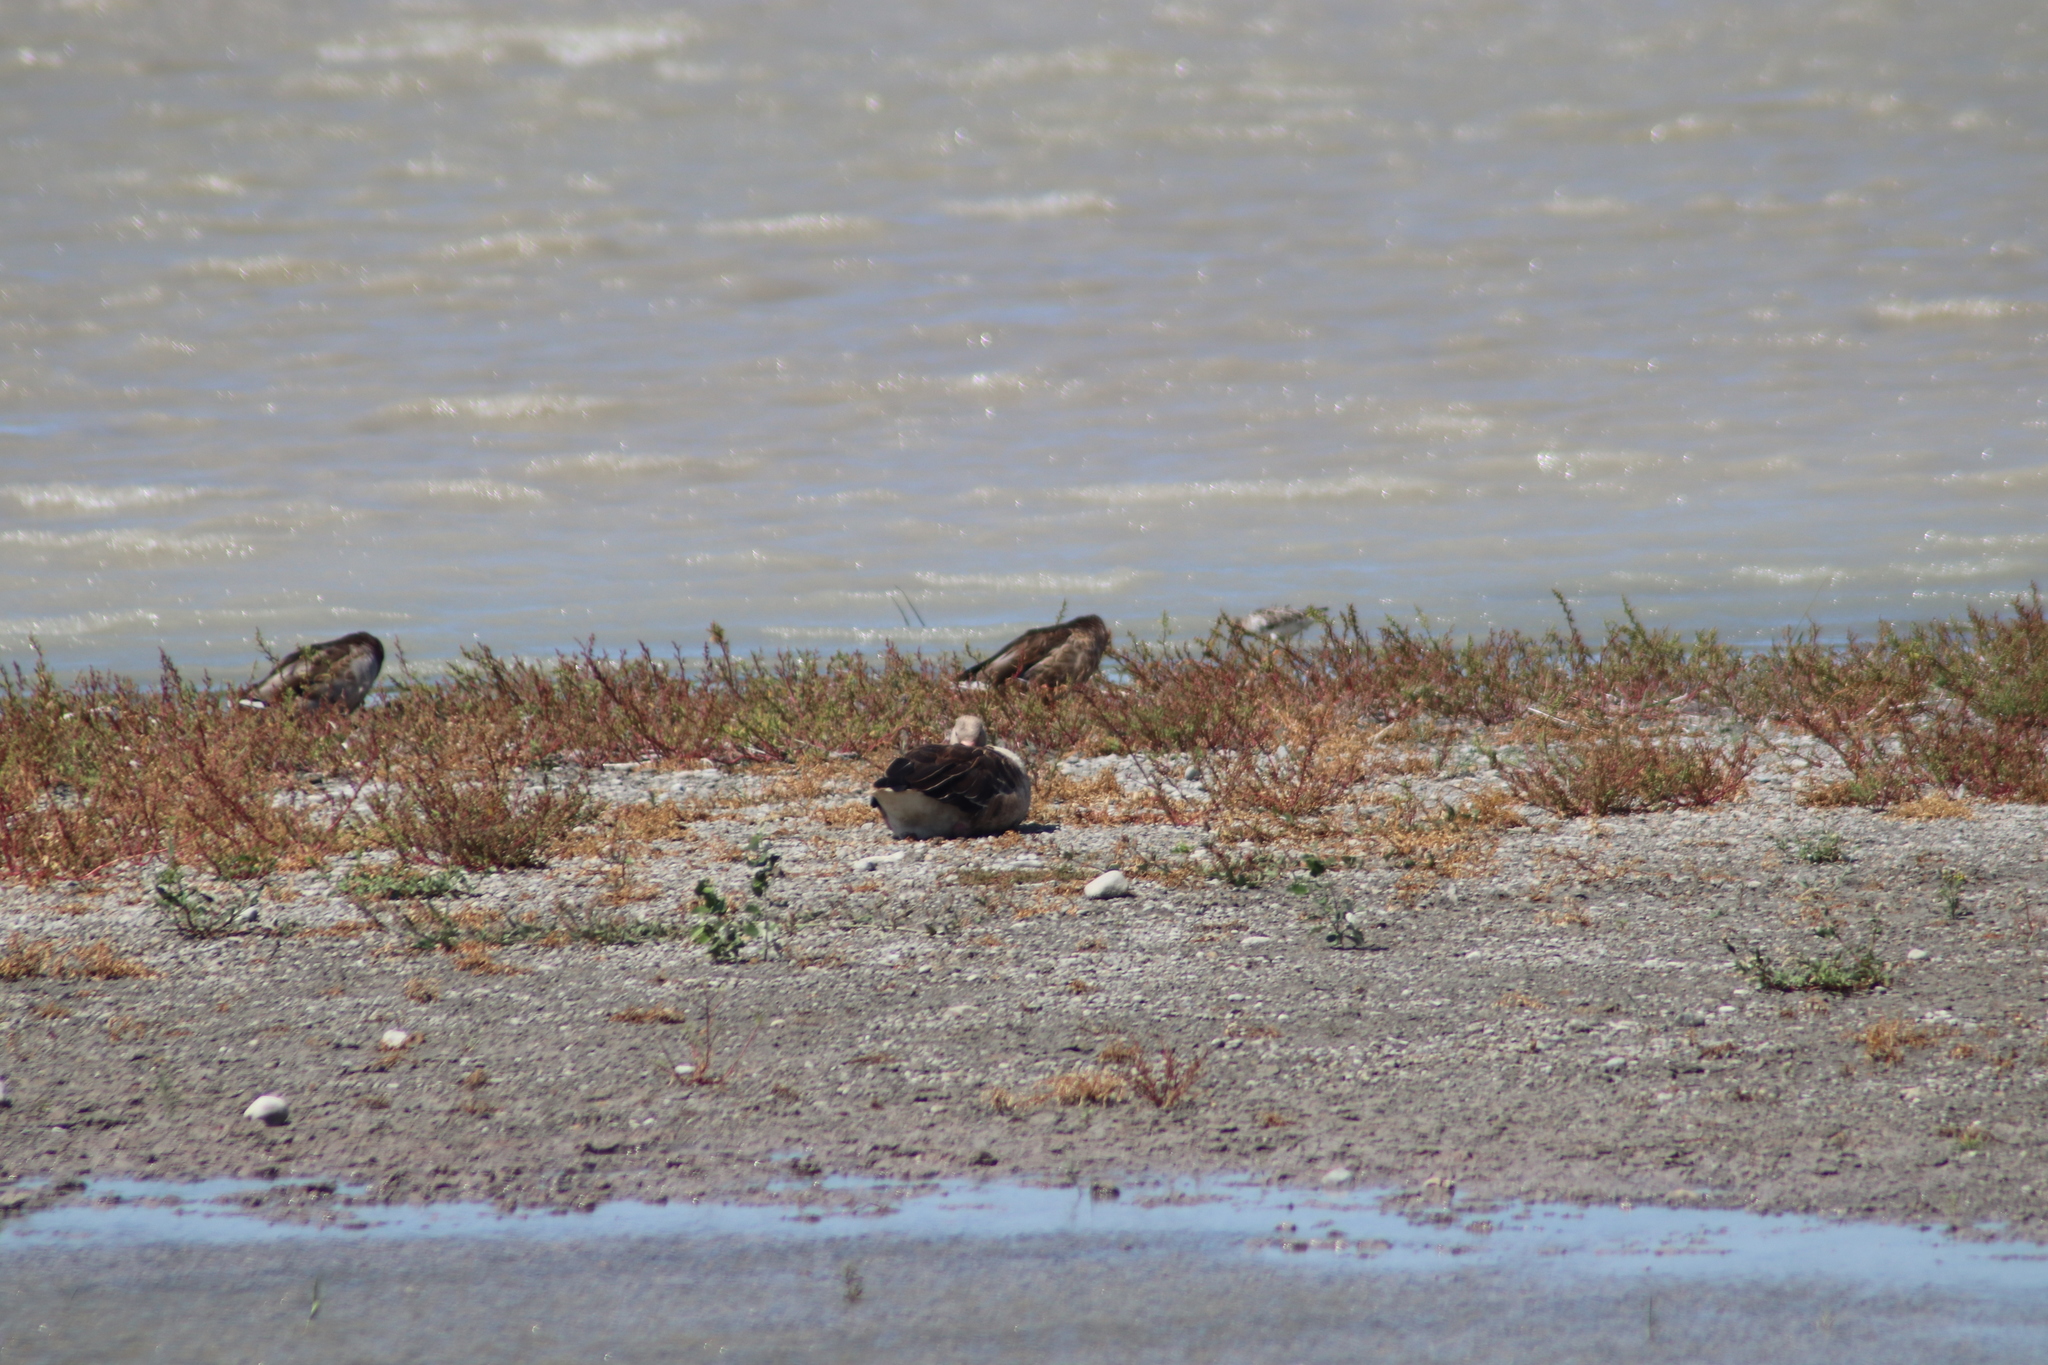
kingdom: Animalia
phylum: Chordata
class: Aves
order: Anseriformes
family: Anatidae
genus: Anser
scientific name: Anser anser
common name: Greylag goose
